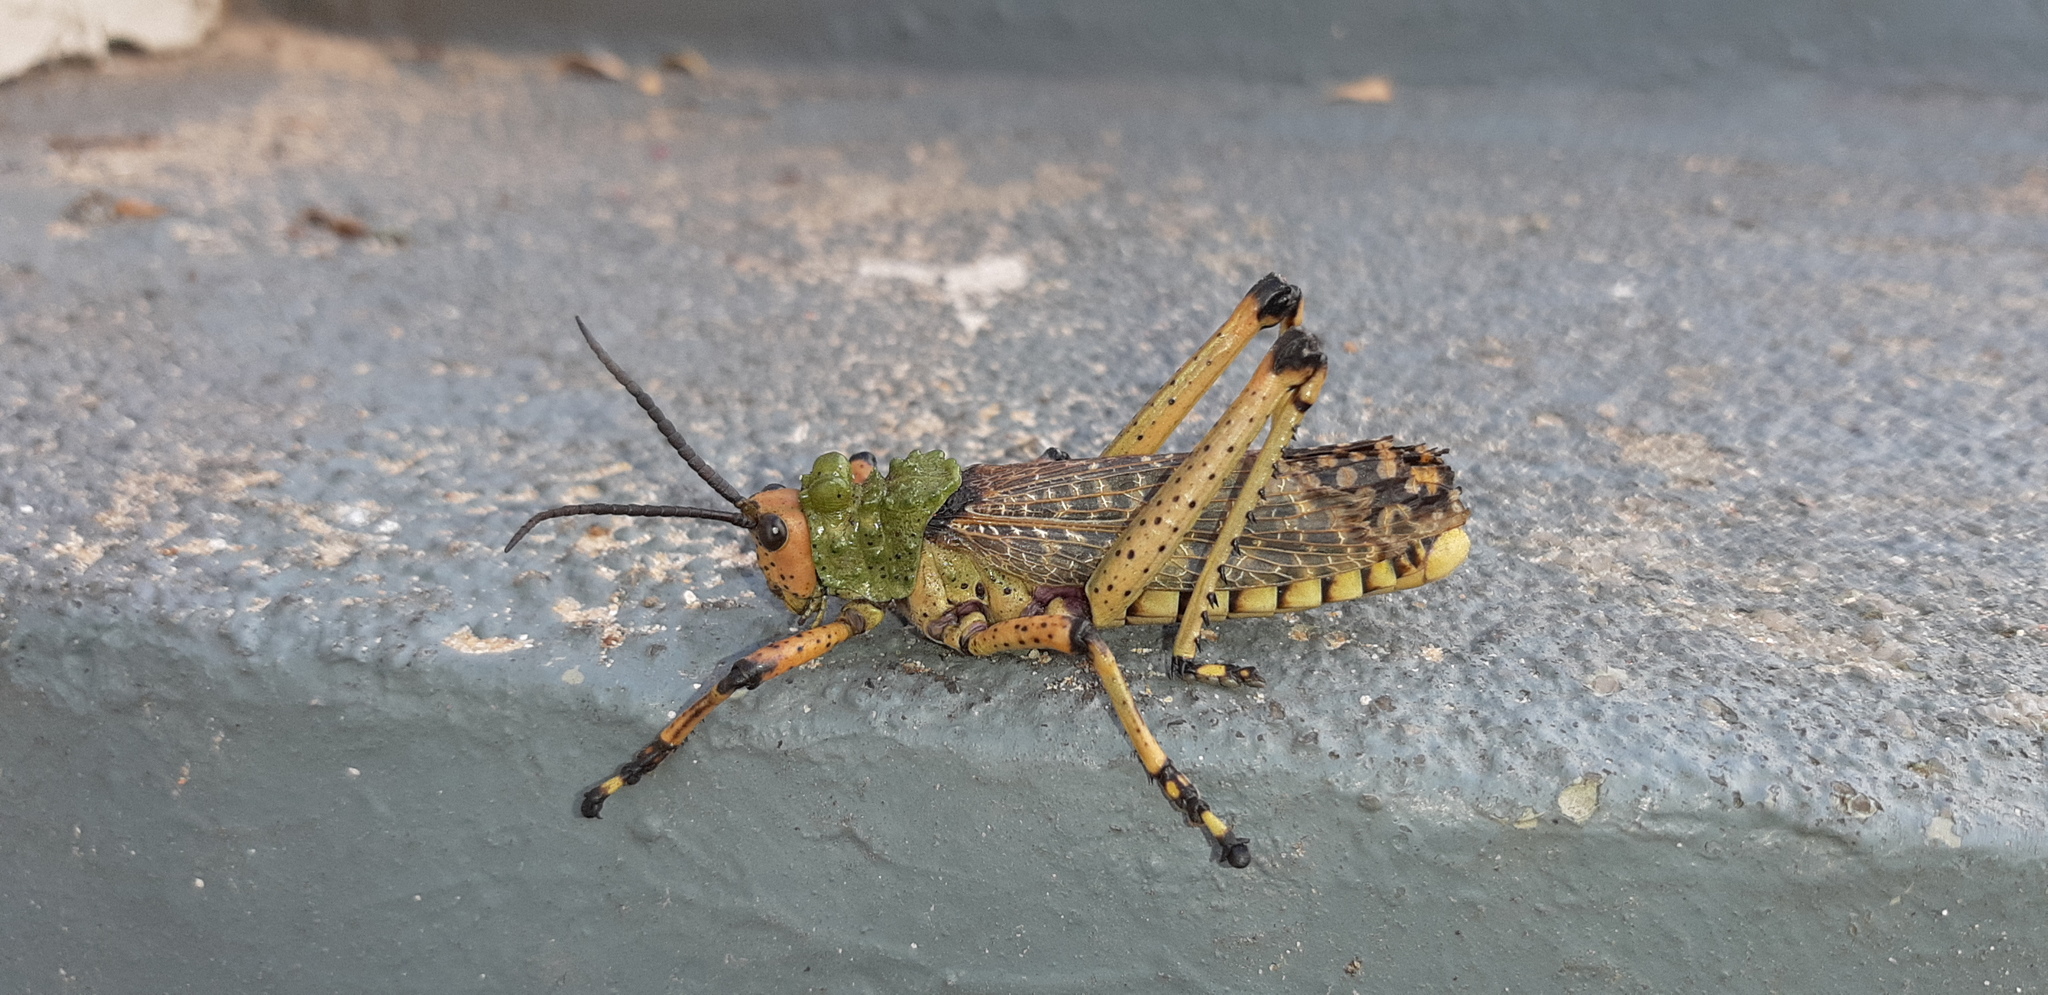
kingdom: Animalia
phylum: Arthropoda
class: Insecta
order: Orthoptera
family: Pyrgomorphidae
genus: Phymateus
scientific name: Phymateus leprosus
